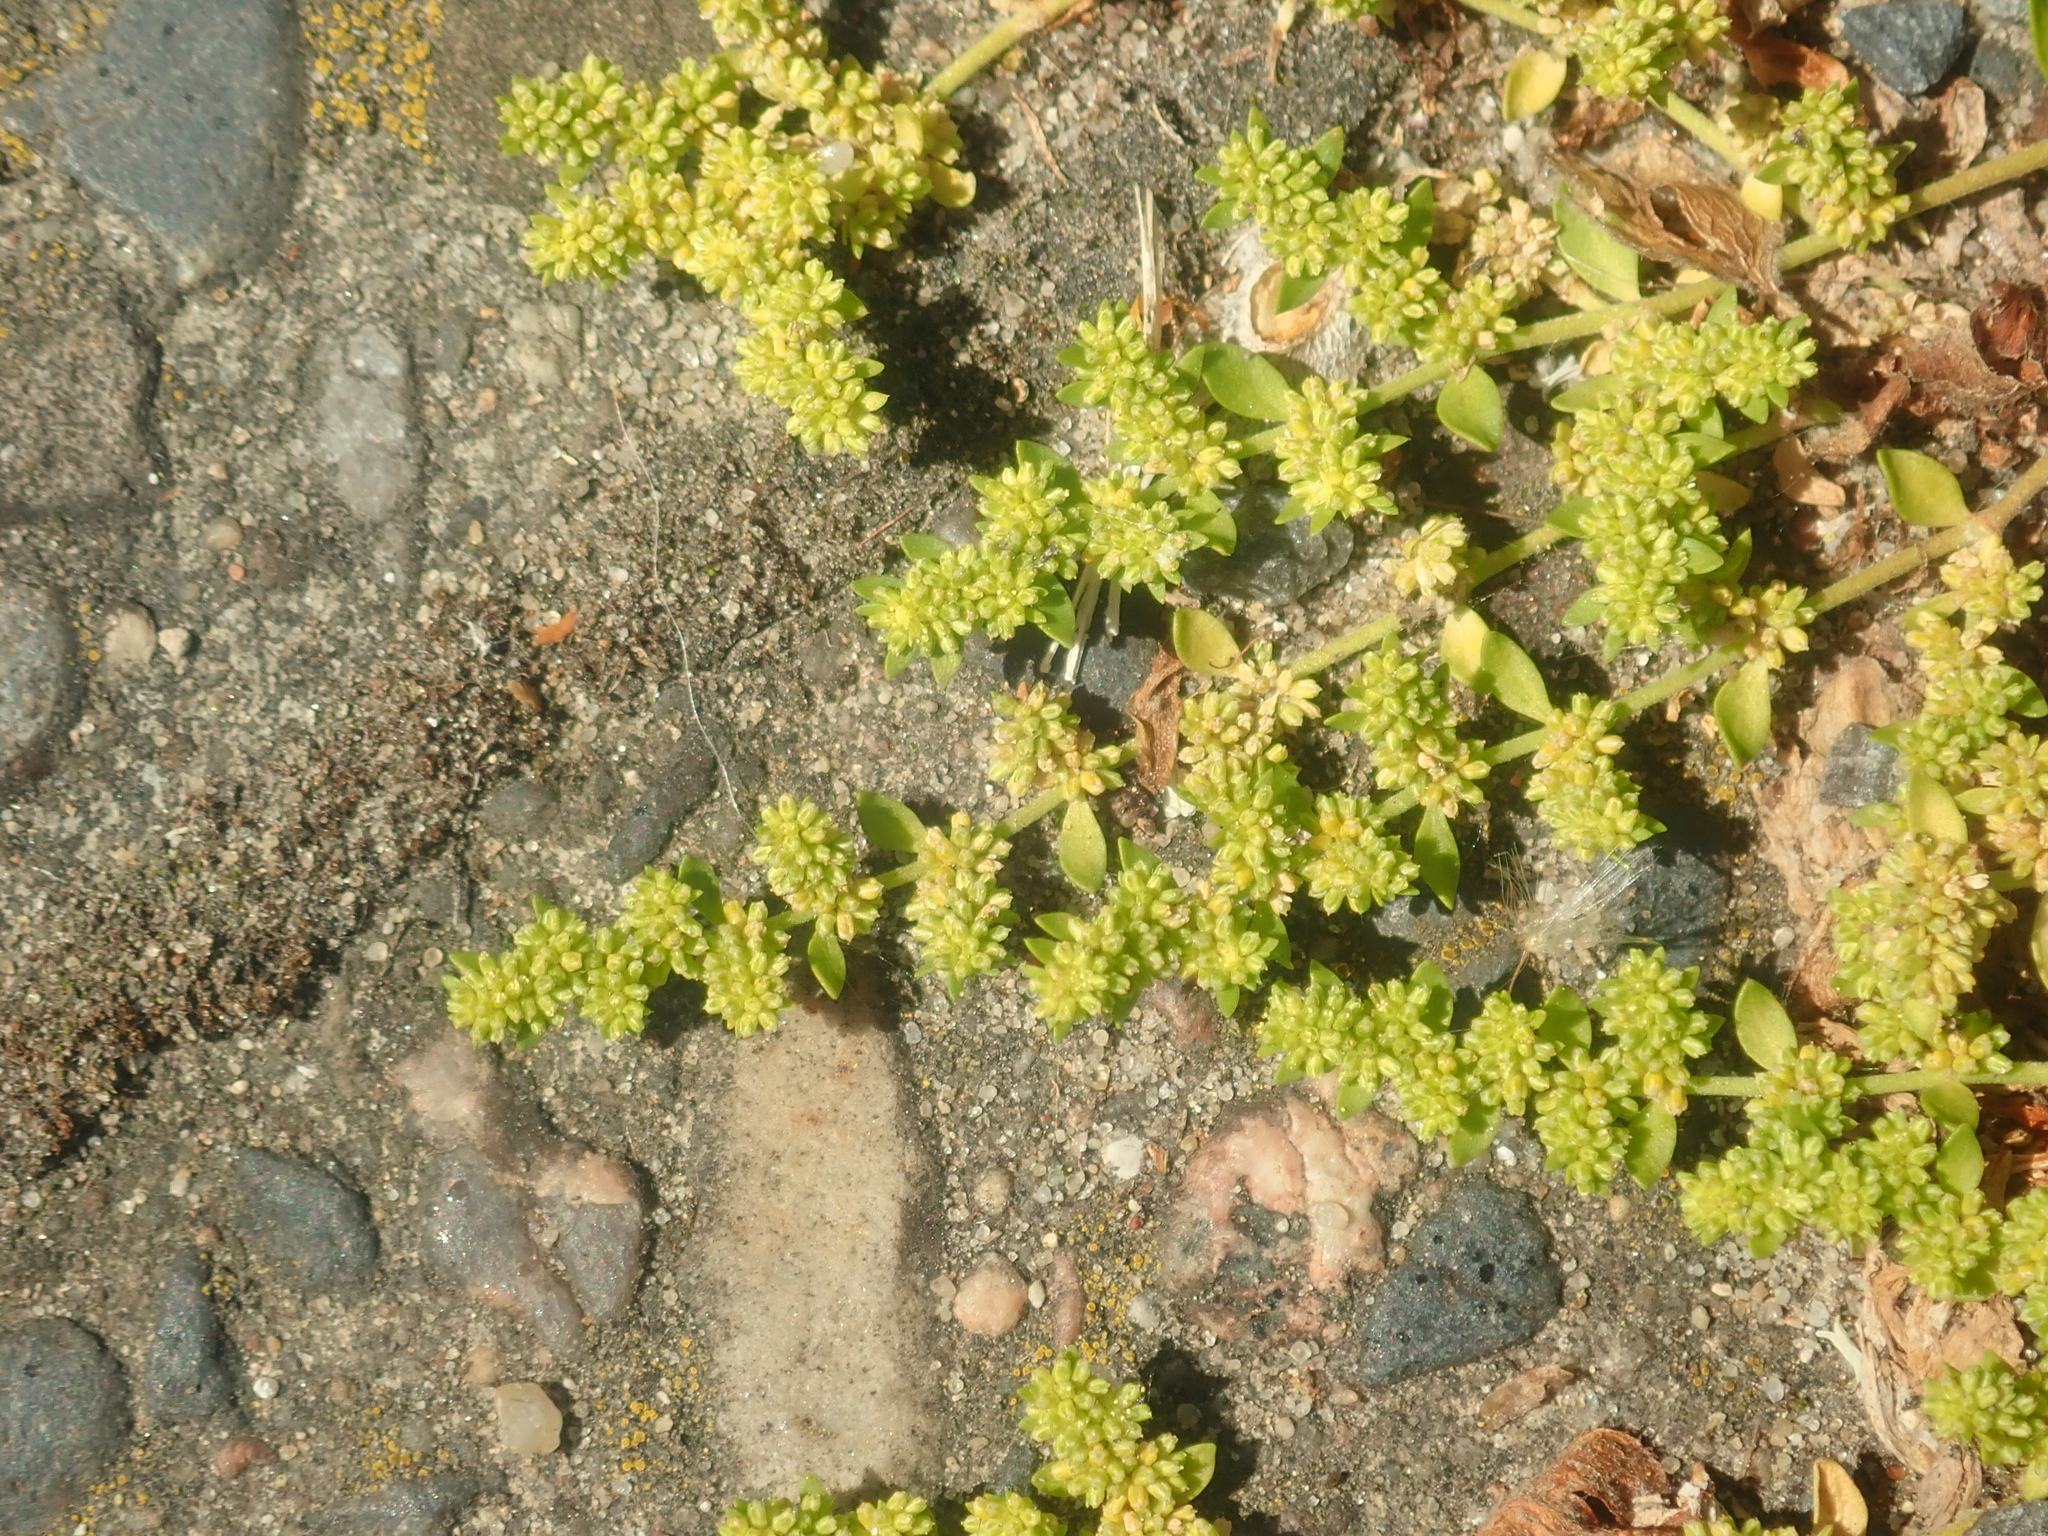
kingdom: Plantae
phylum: Tracheophyta
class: Magnoliopsida
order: Caryophyllales
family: Caryophyllaceae
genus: Herniaria
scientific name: Herniaria glabra
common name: Smooth rupturewort
